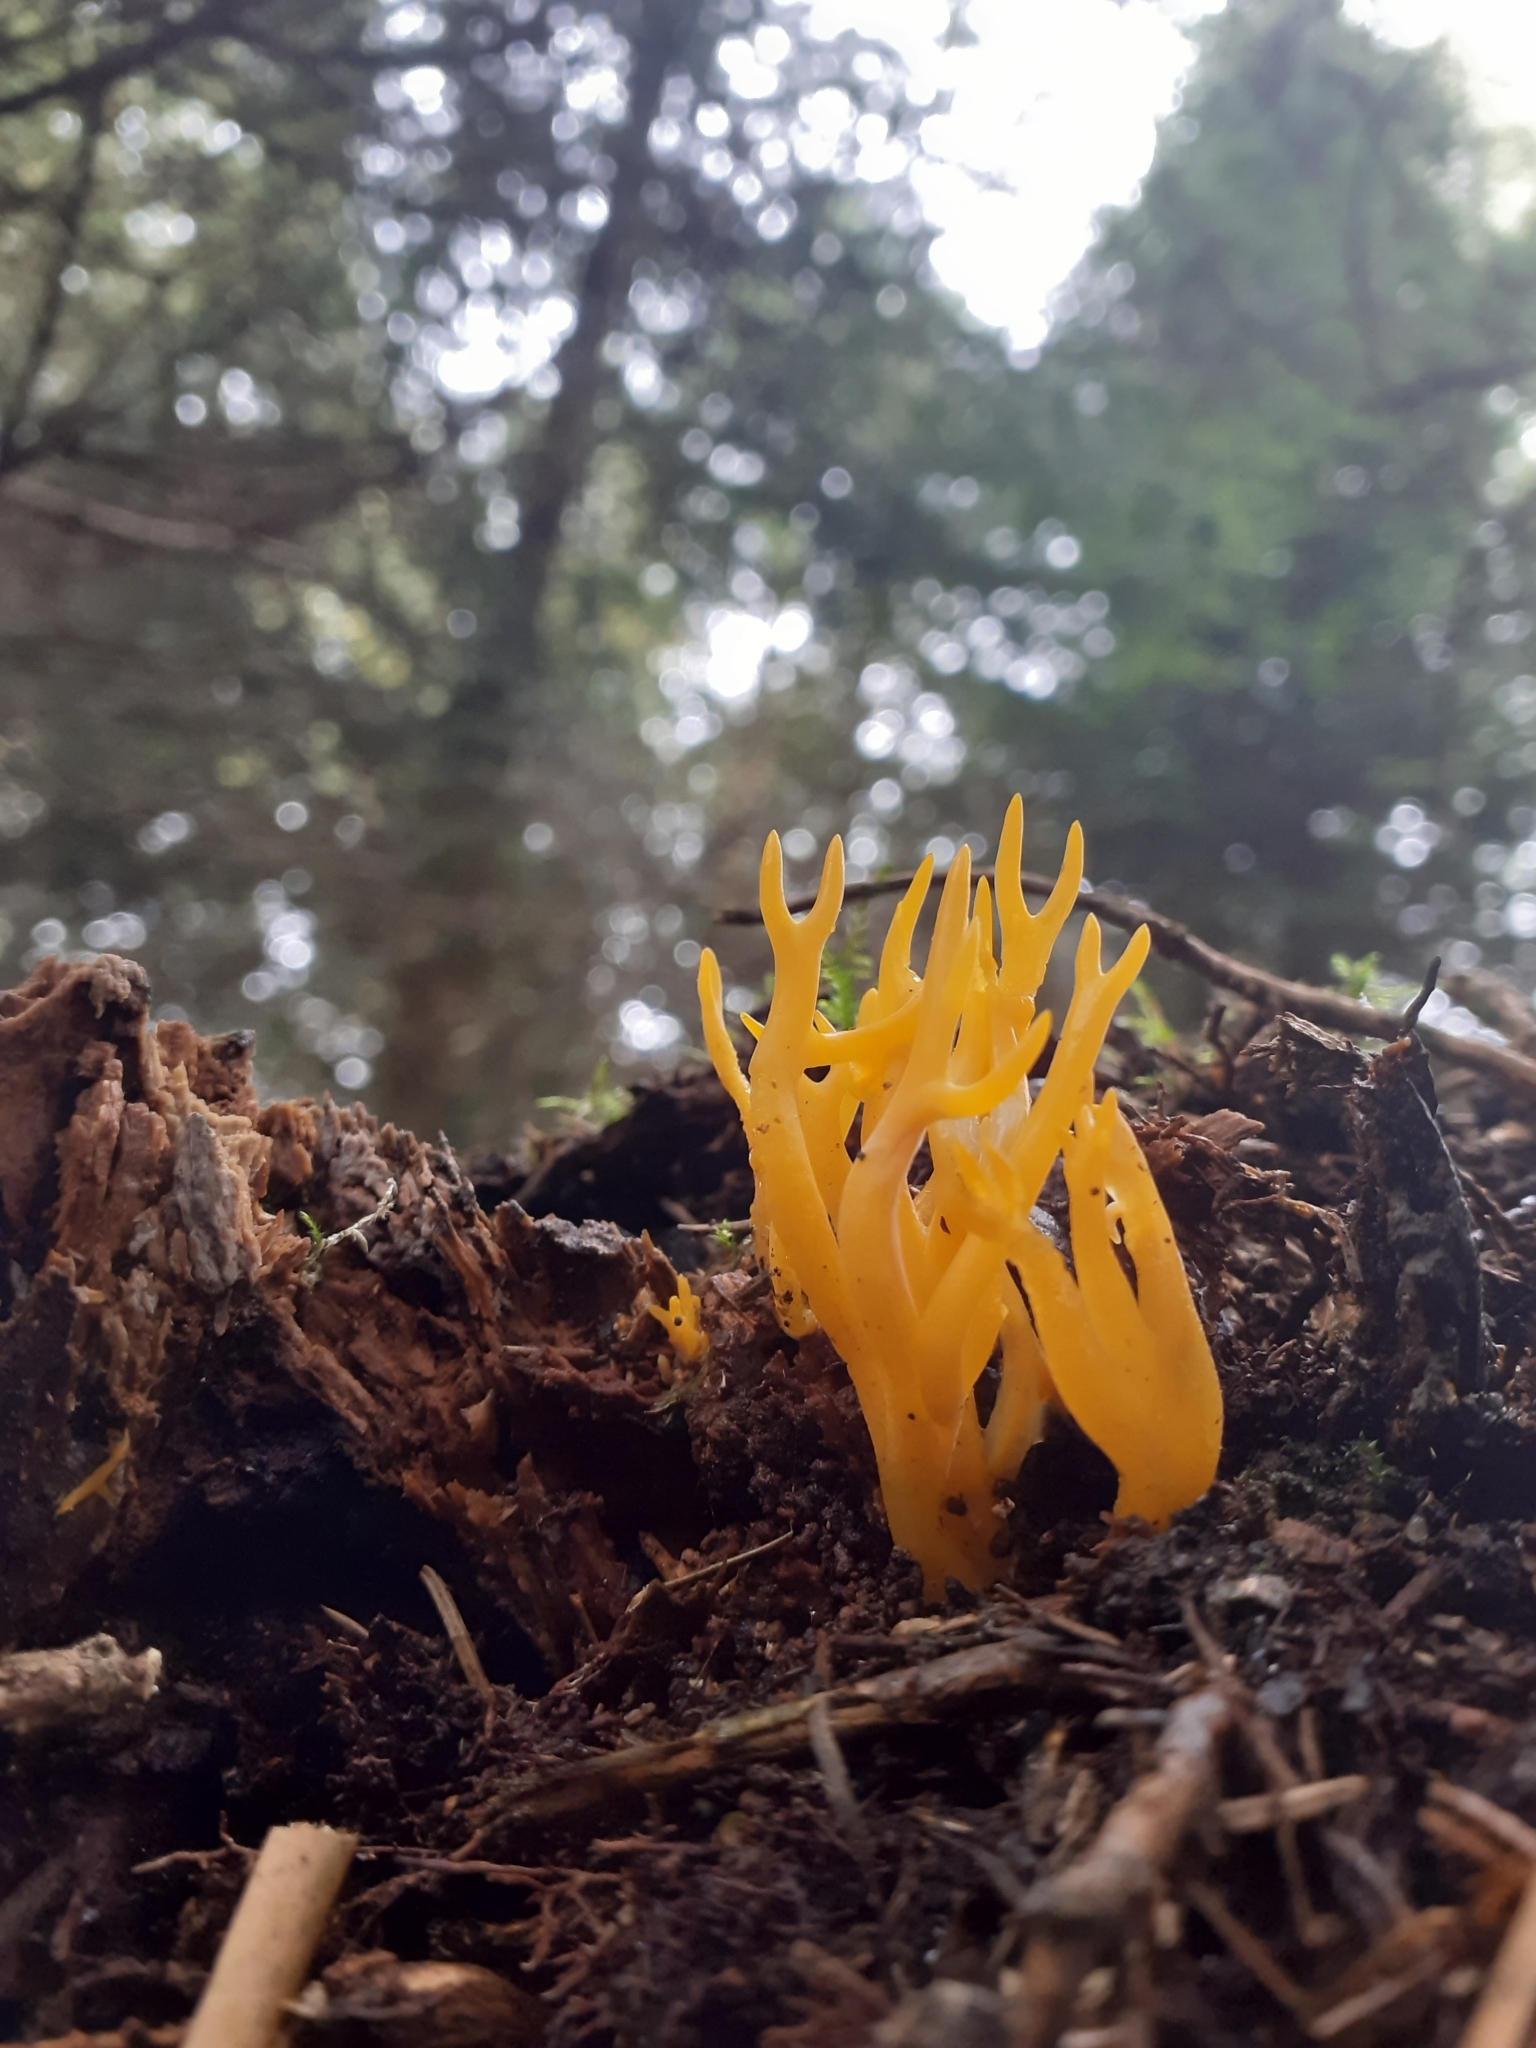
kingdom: Fungi
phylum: Basidiomycota
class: Dacrymycetes
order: Dacrymycetales
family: Dacrymycetaceae
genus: Calocera
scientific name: Calocera viscosa
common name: Yellow stagshorn
